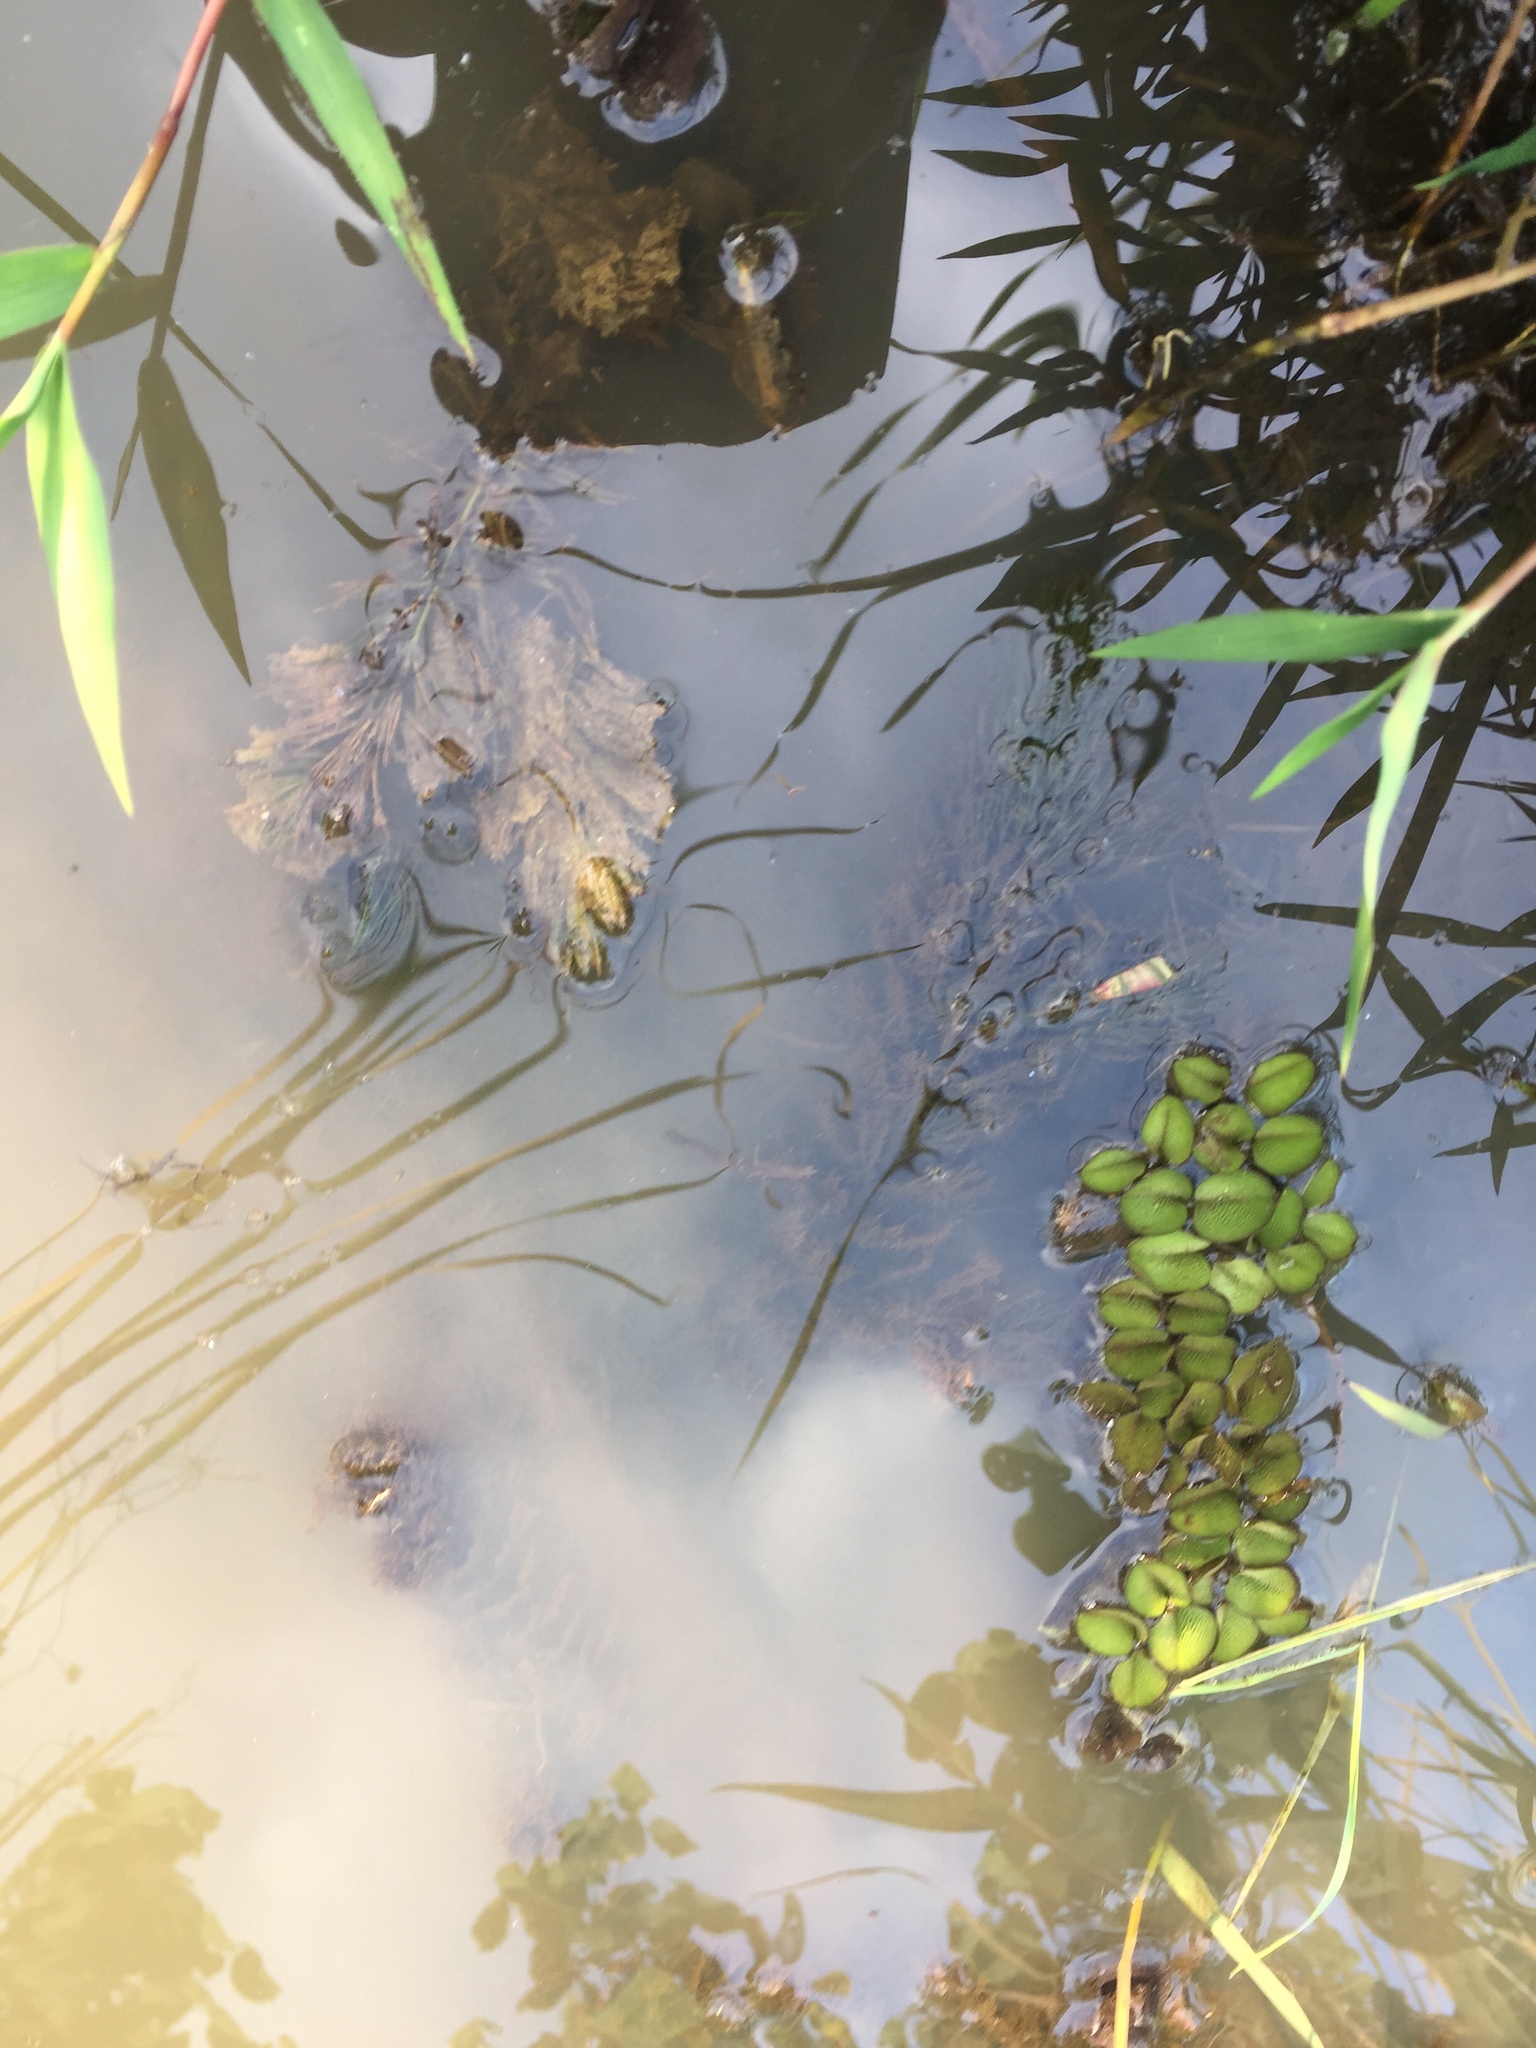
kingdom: Plantae
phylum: Tracheophyta
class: Magnoliopsida
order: Ceratophyllales
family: Ceratophyllaceae
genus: Ceratophyllum
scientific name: Ceratophyllum demersum
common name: Rigid hornwort
